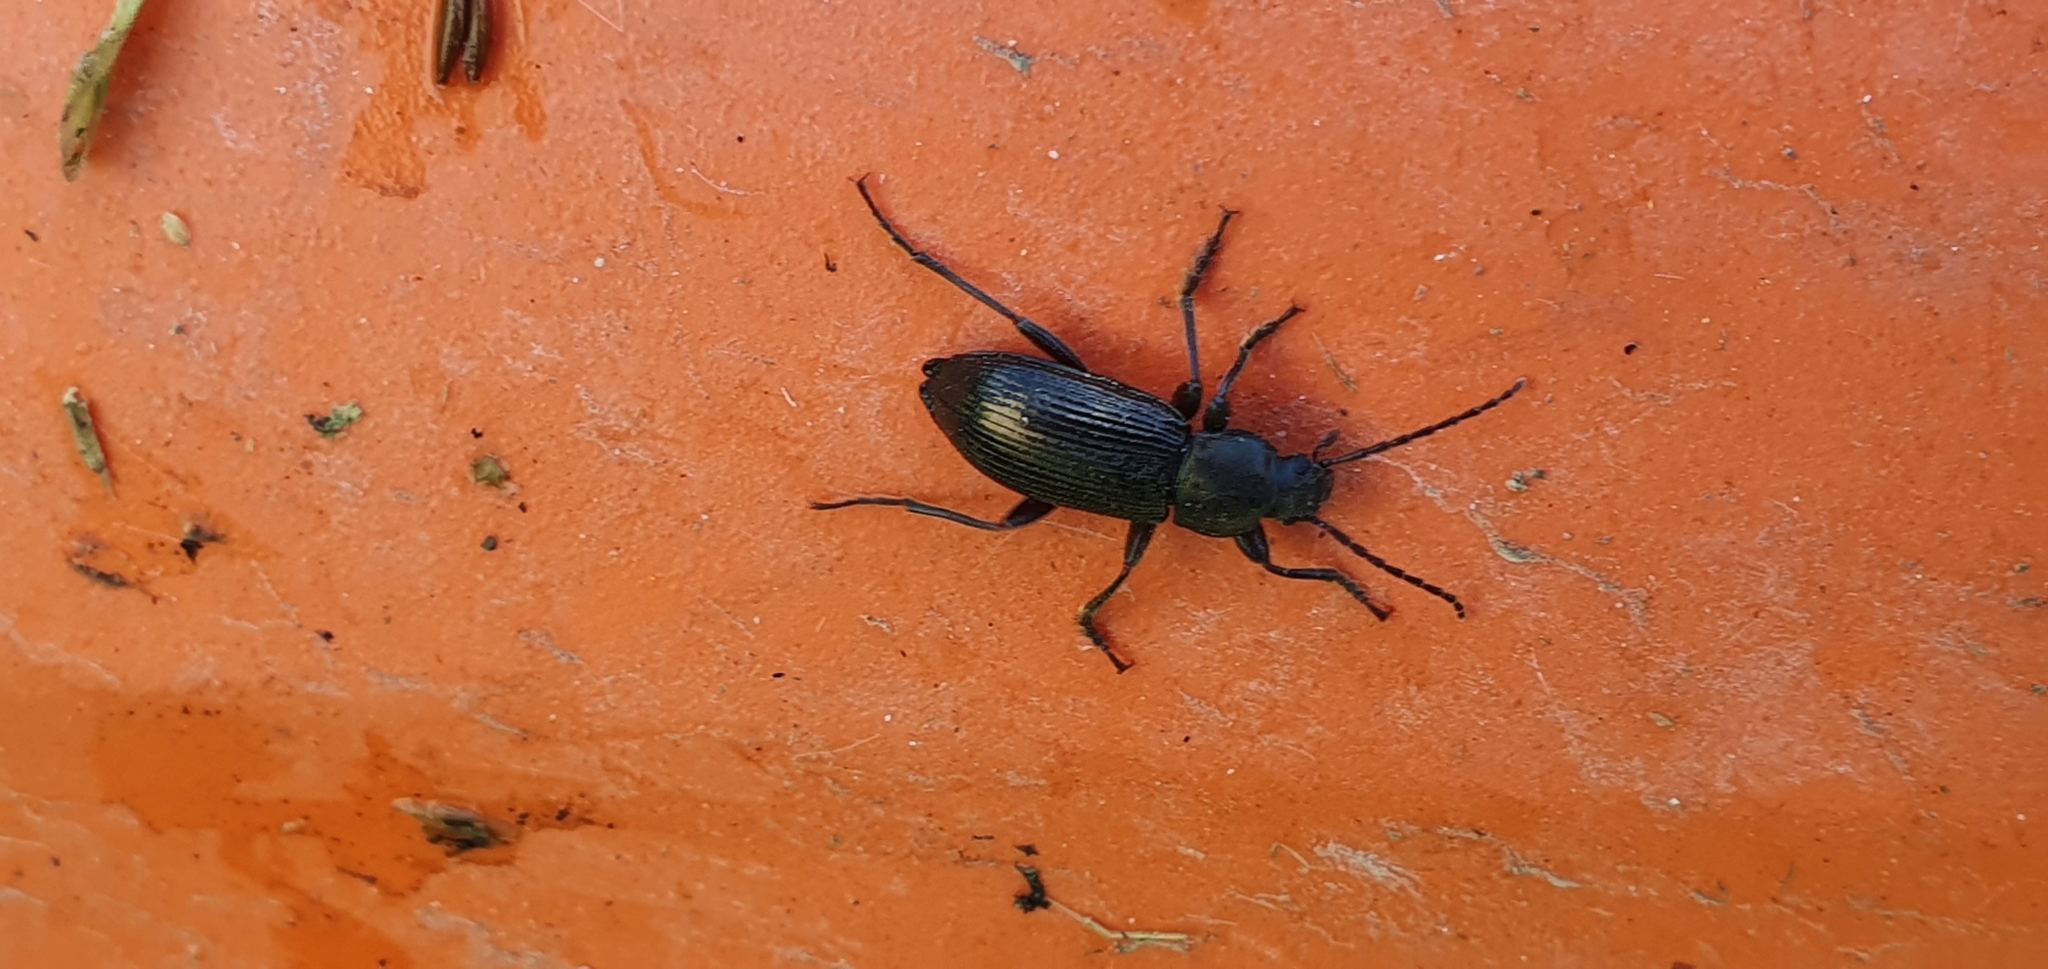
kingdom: Animalia
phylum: Arthropoda
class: Insecta
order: Coleoptera
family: Tenebrionidae
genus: Stenomax
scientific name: Stenomax aeneus
